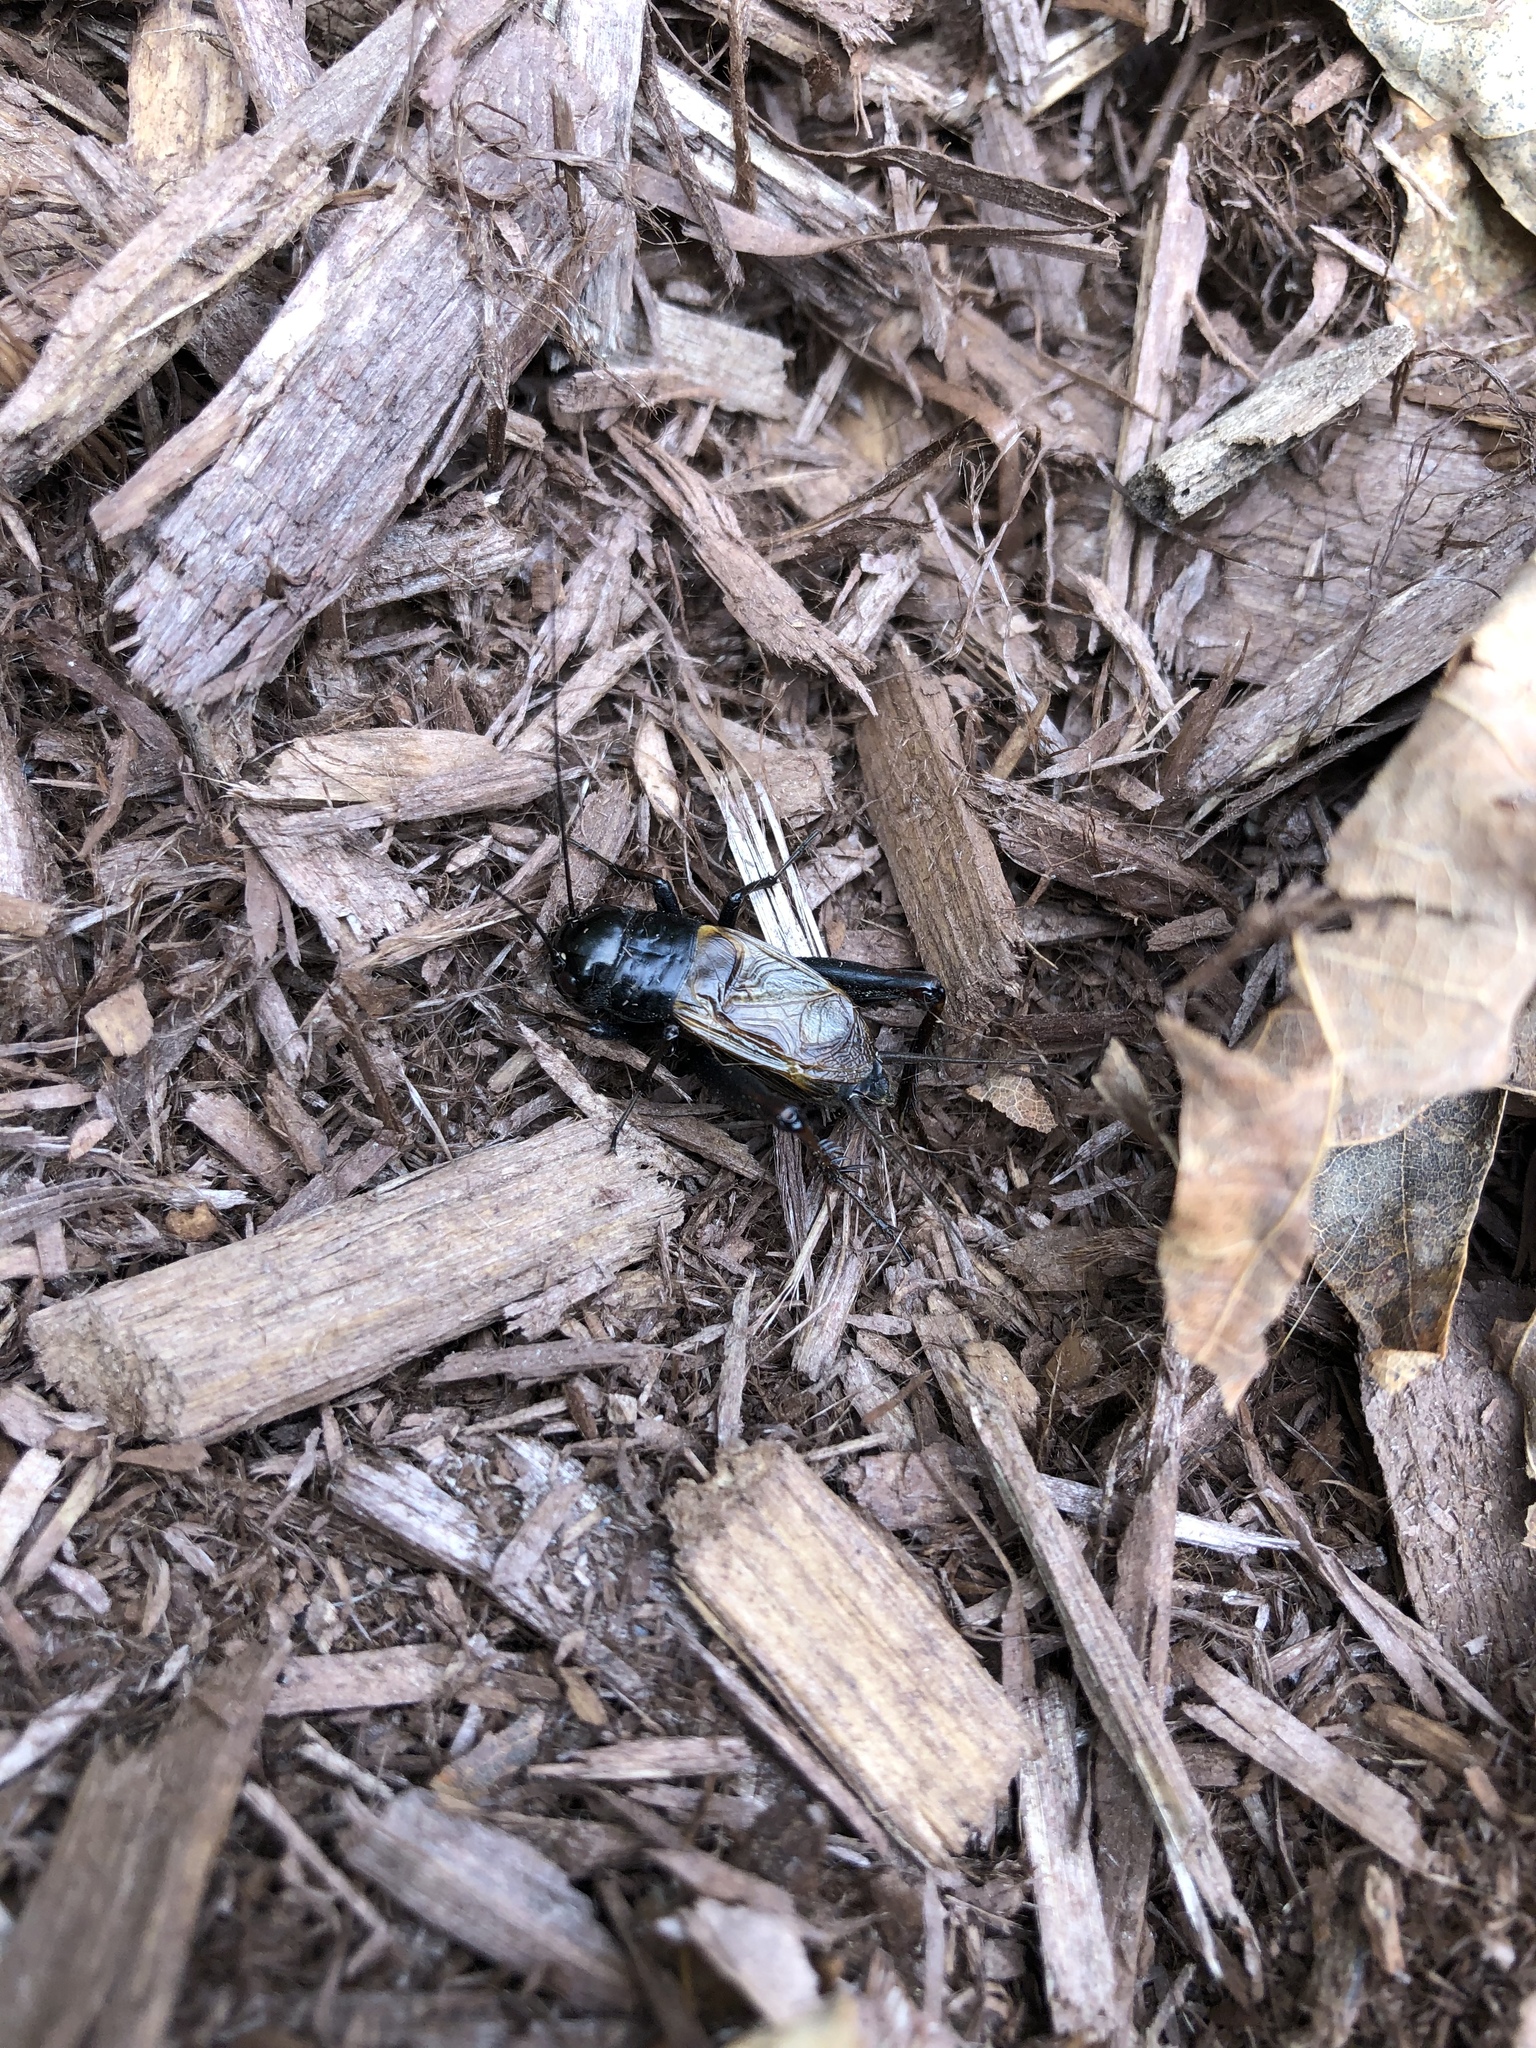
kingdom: Animalia
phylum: Arthropoda
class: Insecta
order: Orthoptera
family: Gryllidae
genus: Gryllus
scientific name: Gryllus pennsylvanicus
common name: Fall field cricket
